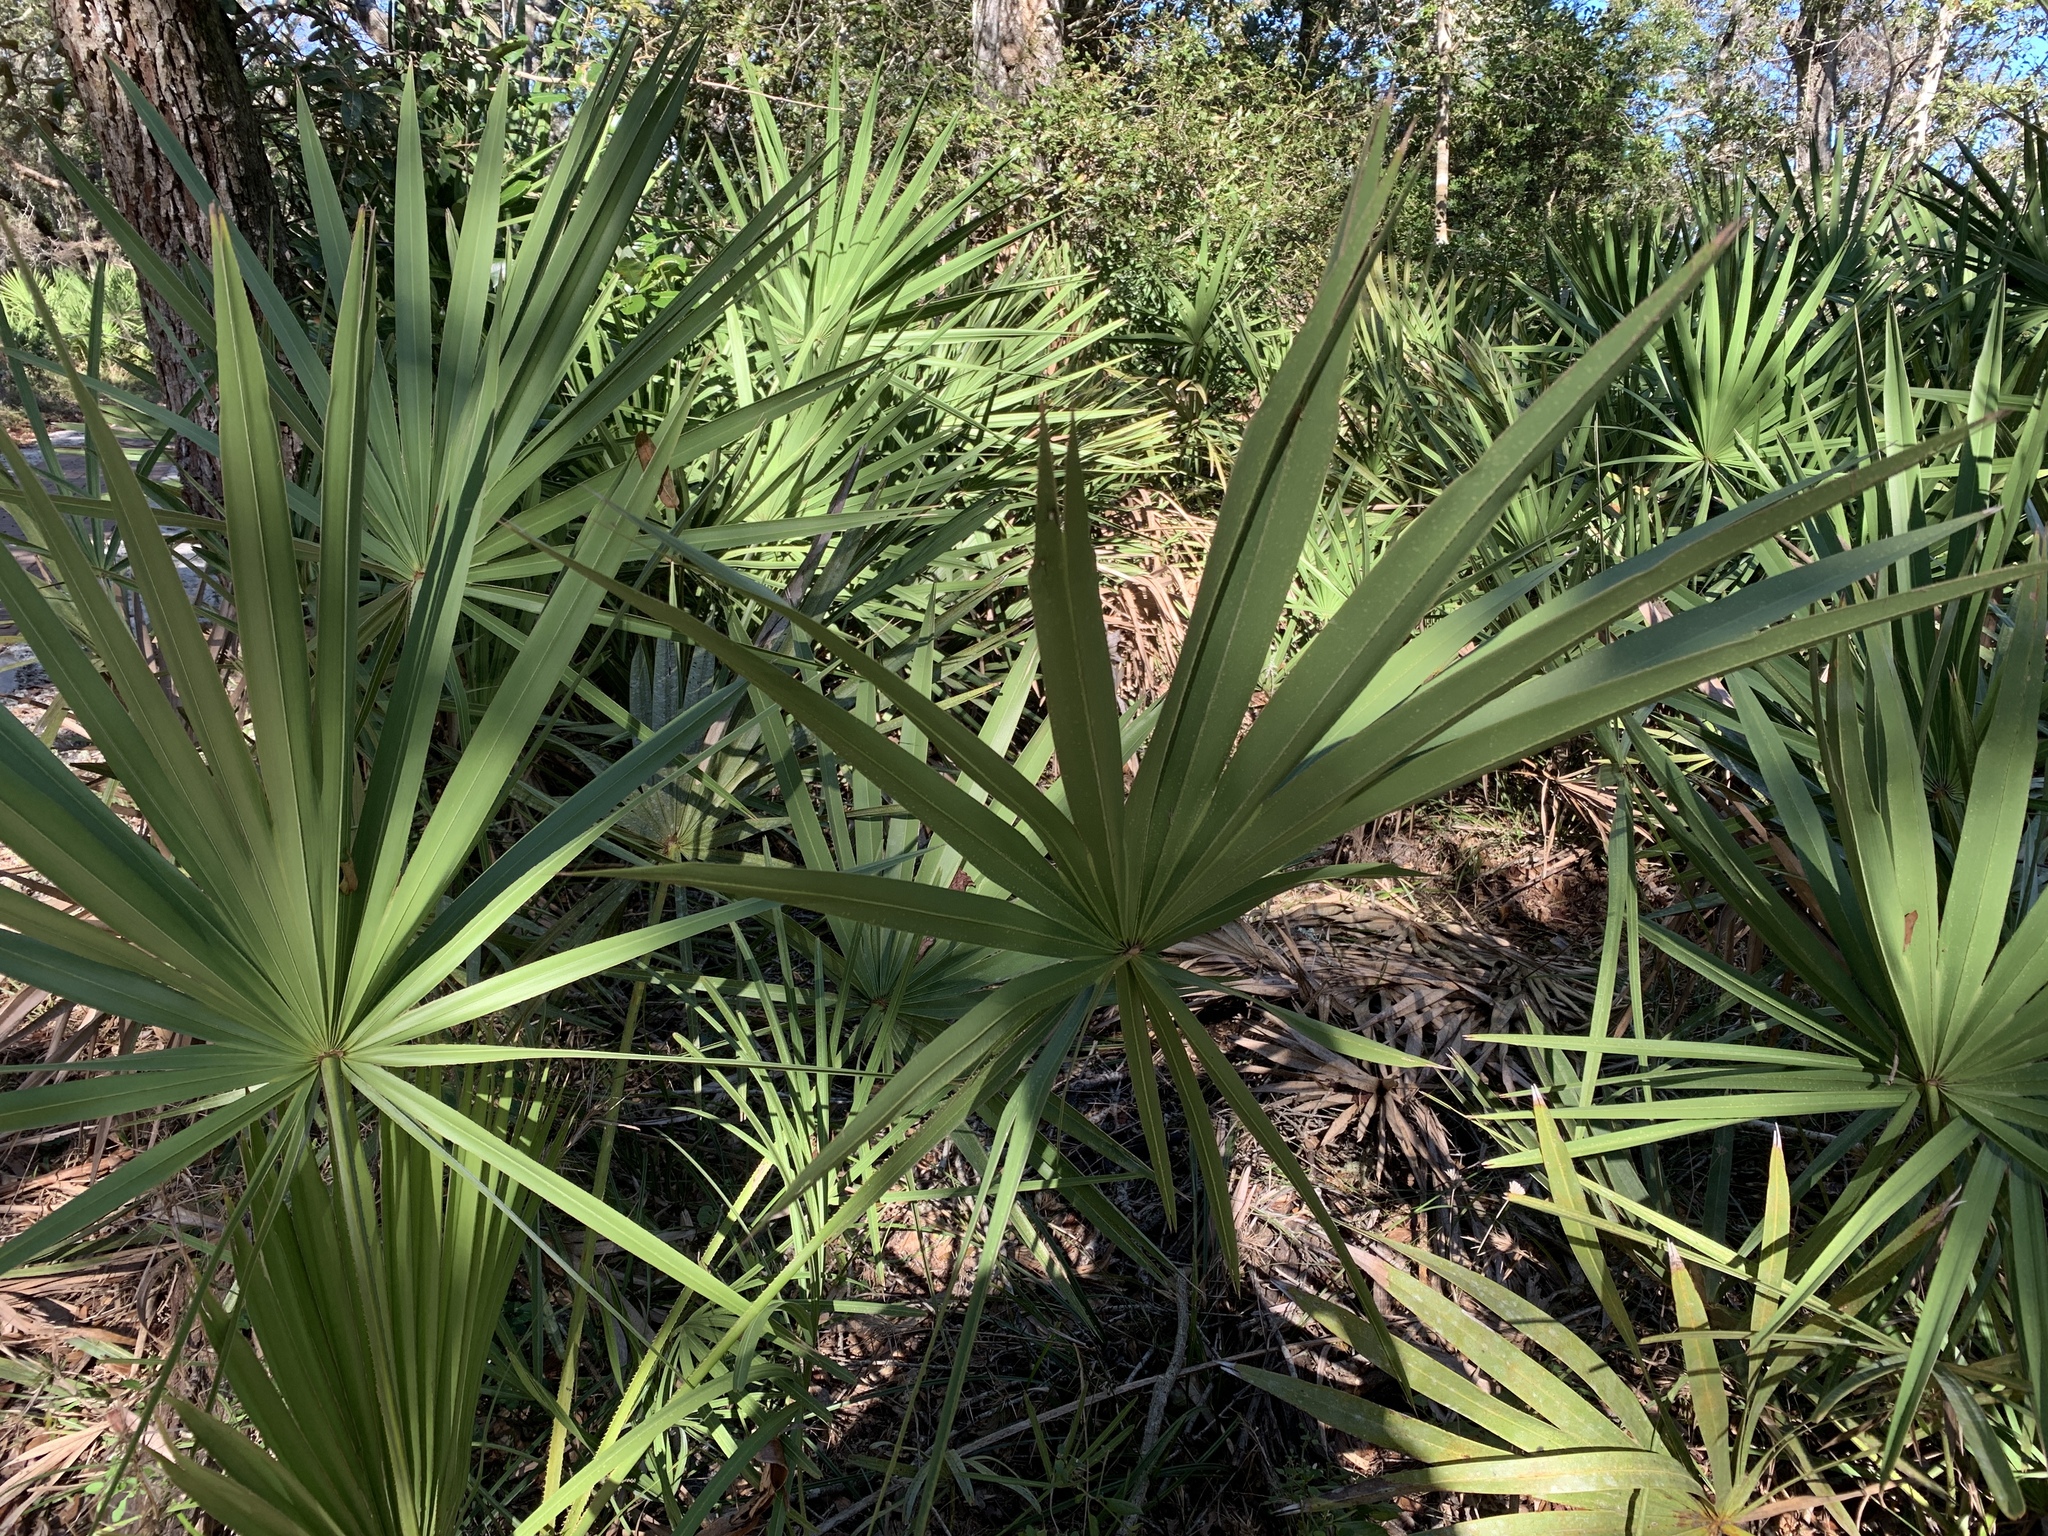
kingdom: Plantae
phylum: Tracheophyta
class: Liliopsida
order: Arecales
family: Arecaceae
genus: Serenoa
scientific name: Serenoa repens
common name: Saw-palmetto
